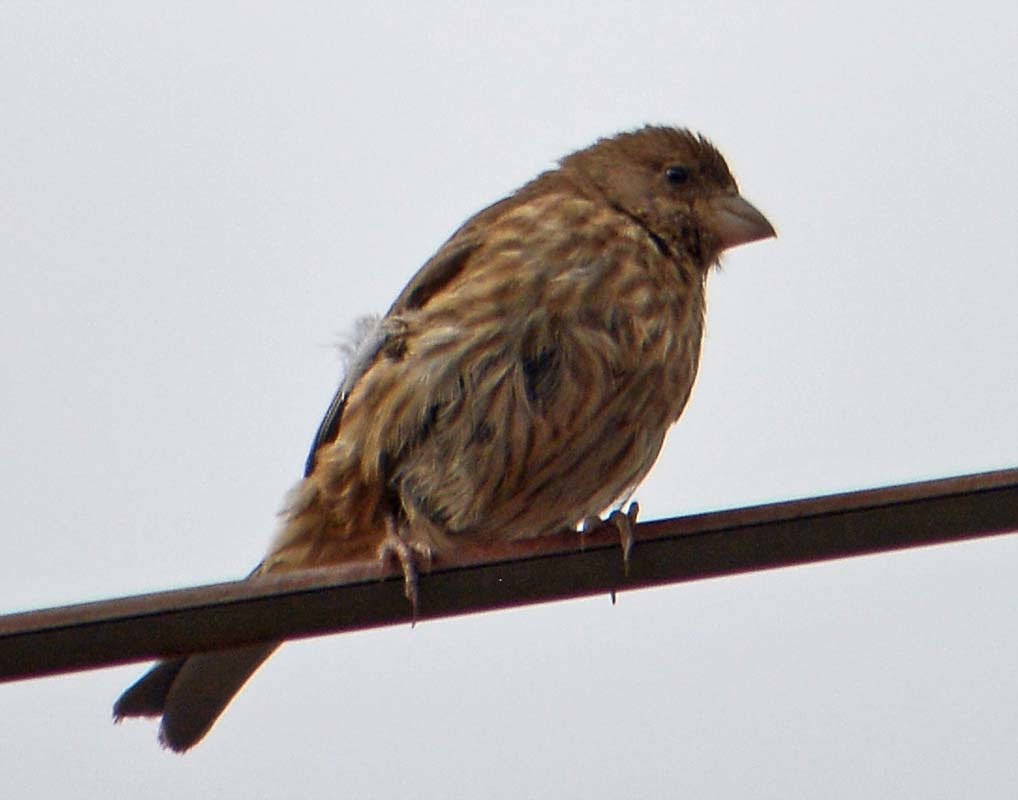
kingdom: Animalia
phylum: Chordata
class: Aves
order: Passeriformes
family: Fringillidae
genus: Haemorhous
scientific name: Haemorhous mexicanus
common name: House finch
